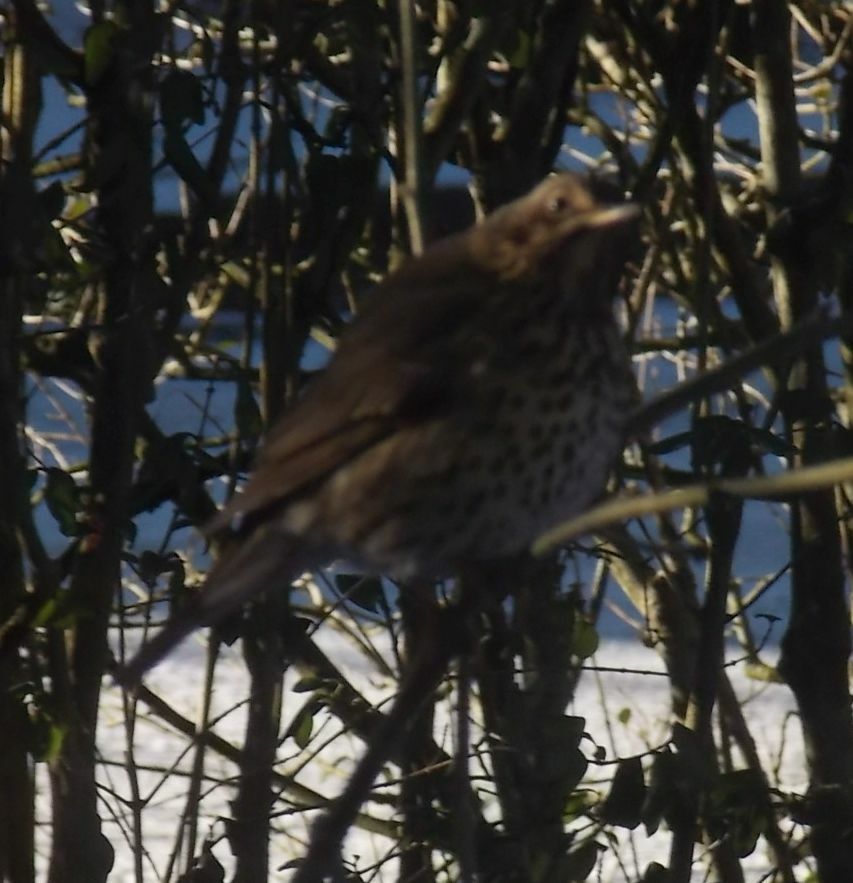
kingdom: Animalia
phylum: Chordata
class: Aves
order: Passeriformes
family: Turdidae
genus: Turdus
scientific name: Turdus philomelos
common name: Song thrush
